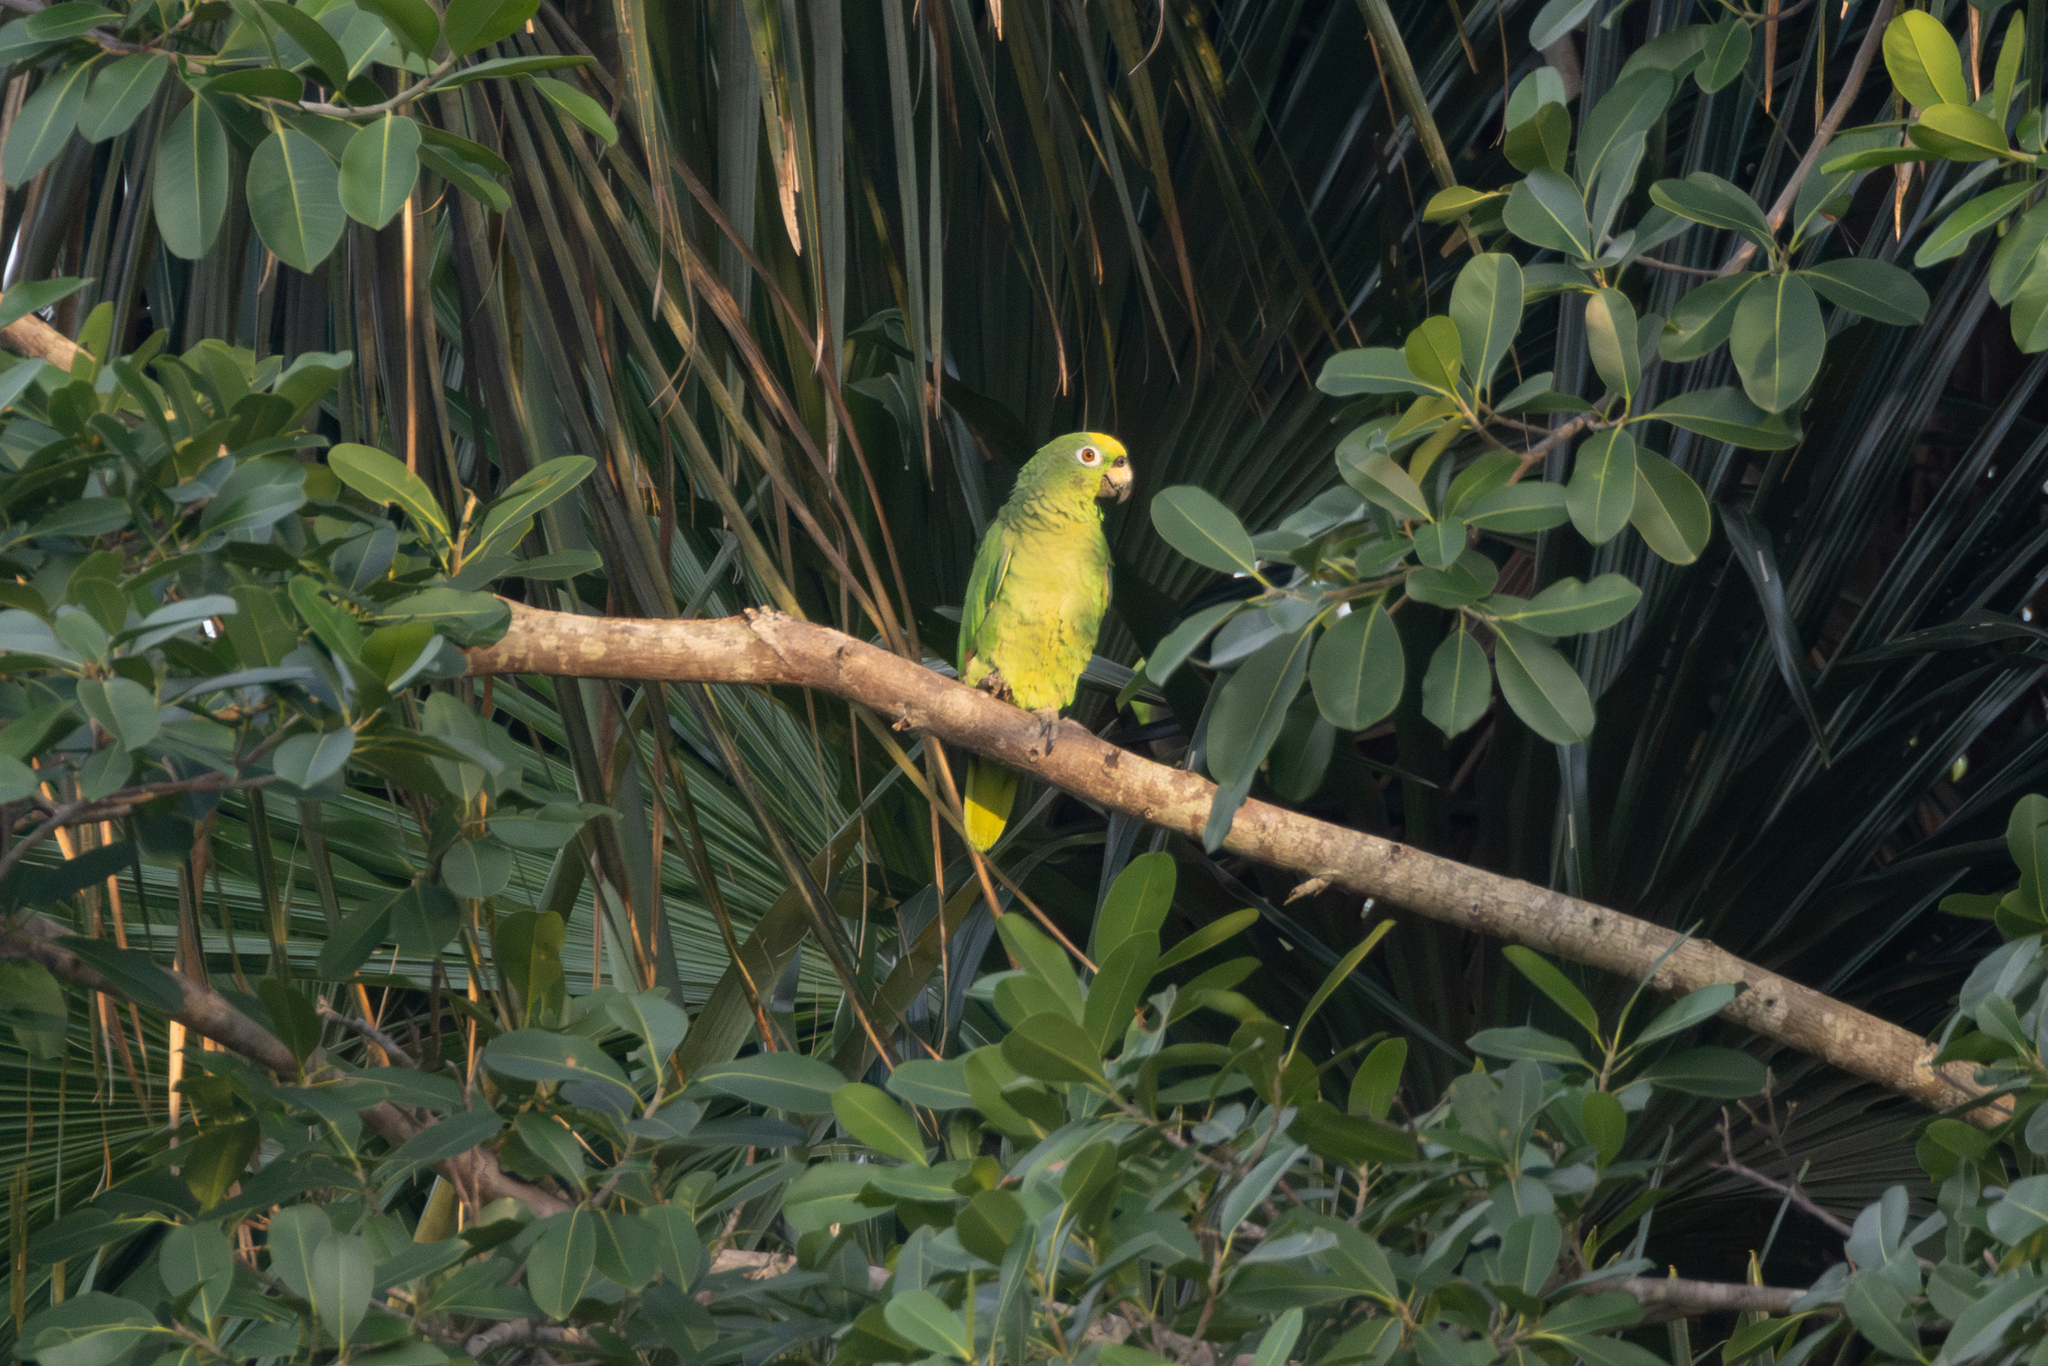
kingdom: Animalia
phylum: Chordata
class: Aves
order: Psittaciformes
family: Psittacidae
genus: Amazona
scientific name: Amazona ochrocephala
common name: Yellow-crowned amazon
